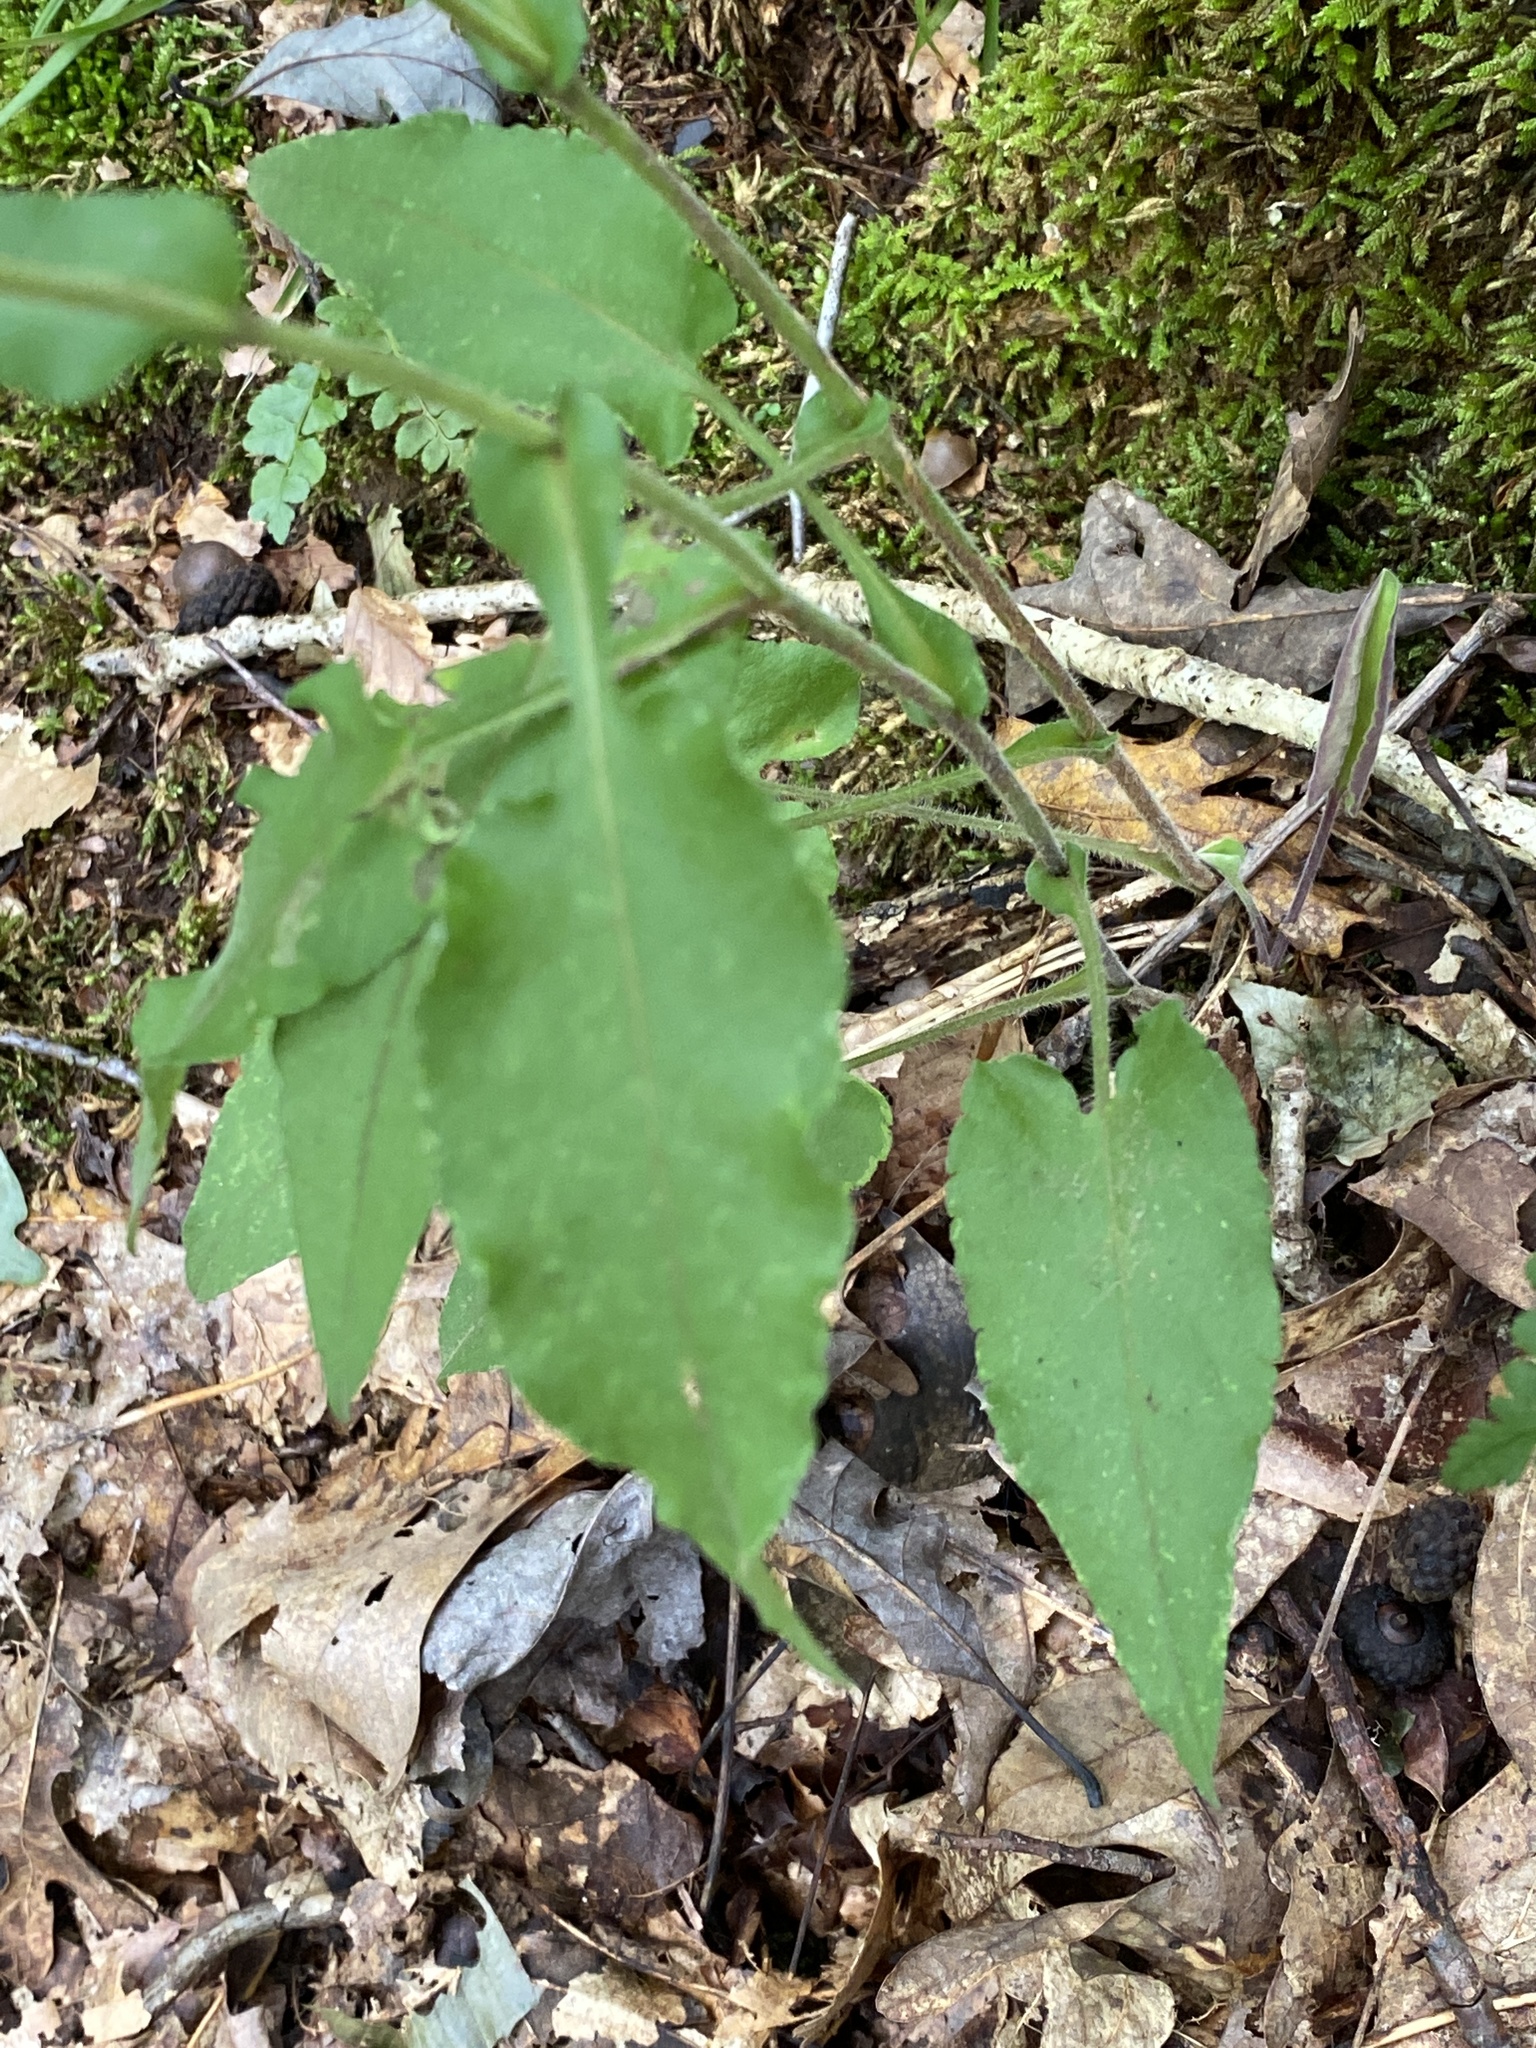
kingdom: Plantae
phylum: Tracheophyta
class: Magnoliopsida
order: Asterales
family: Asteraceae
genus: Symphyotrichum
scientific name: Symphyotrichum undulatum
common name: Clasping heart-leaf aster
